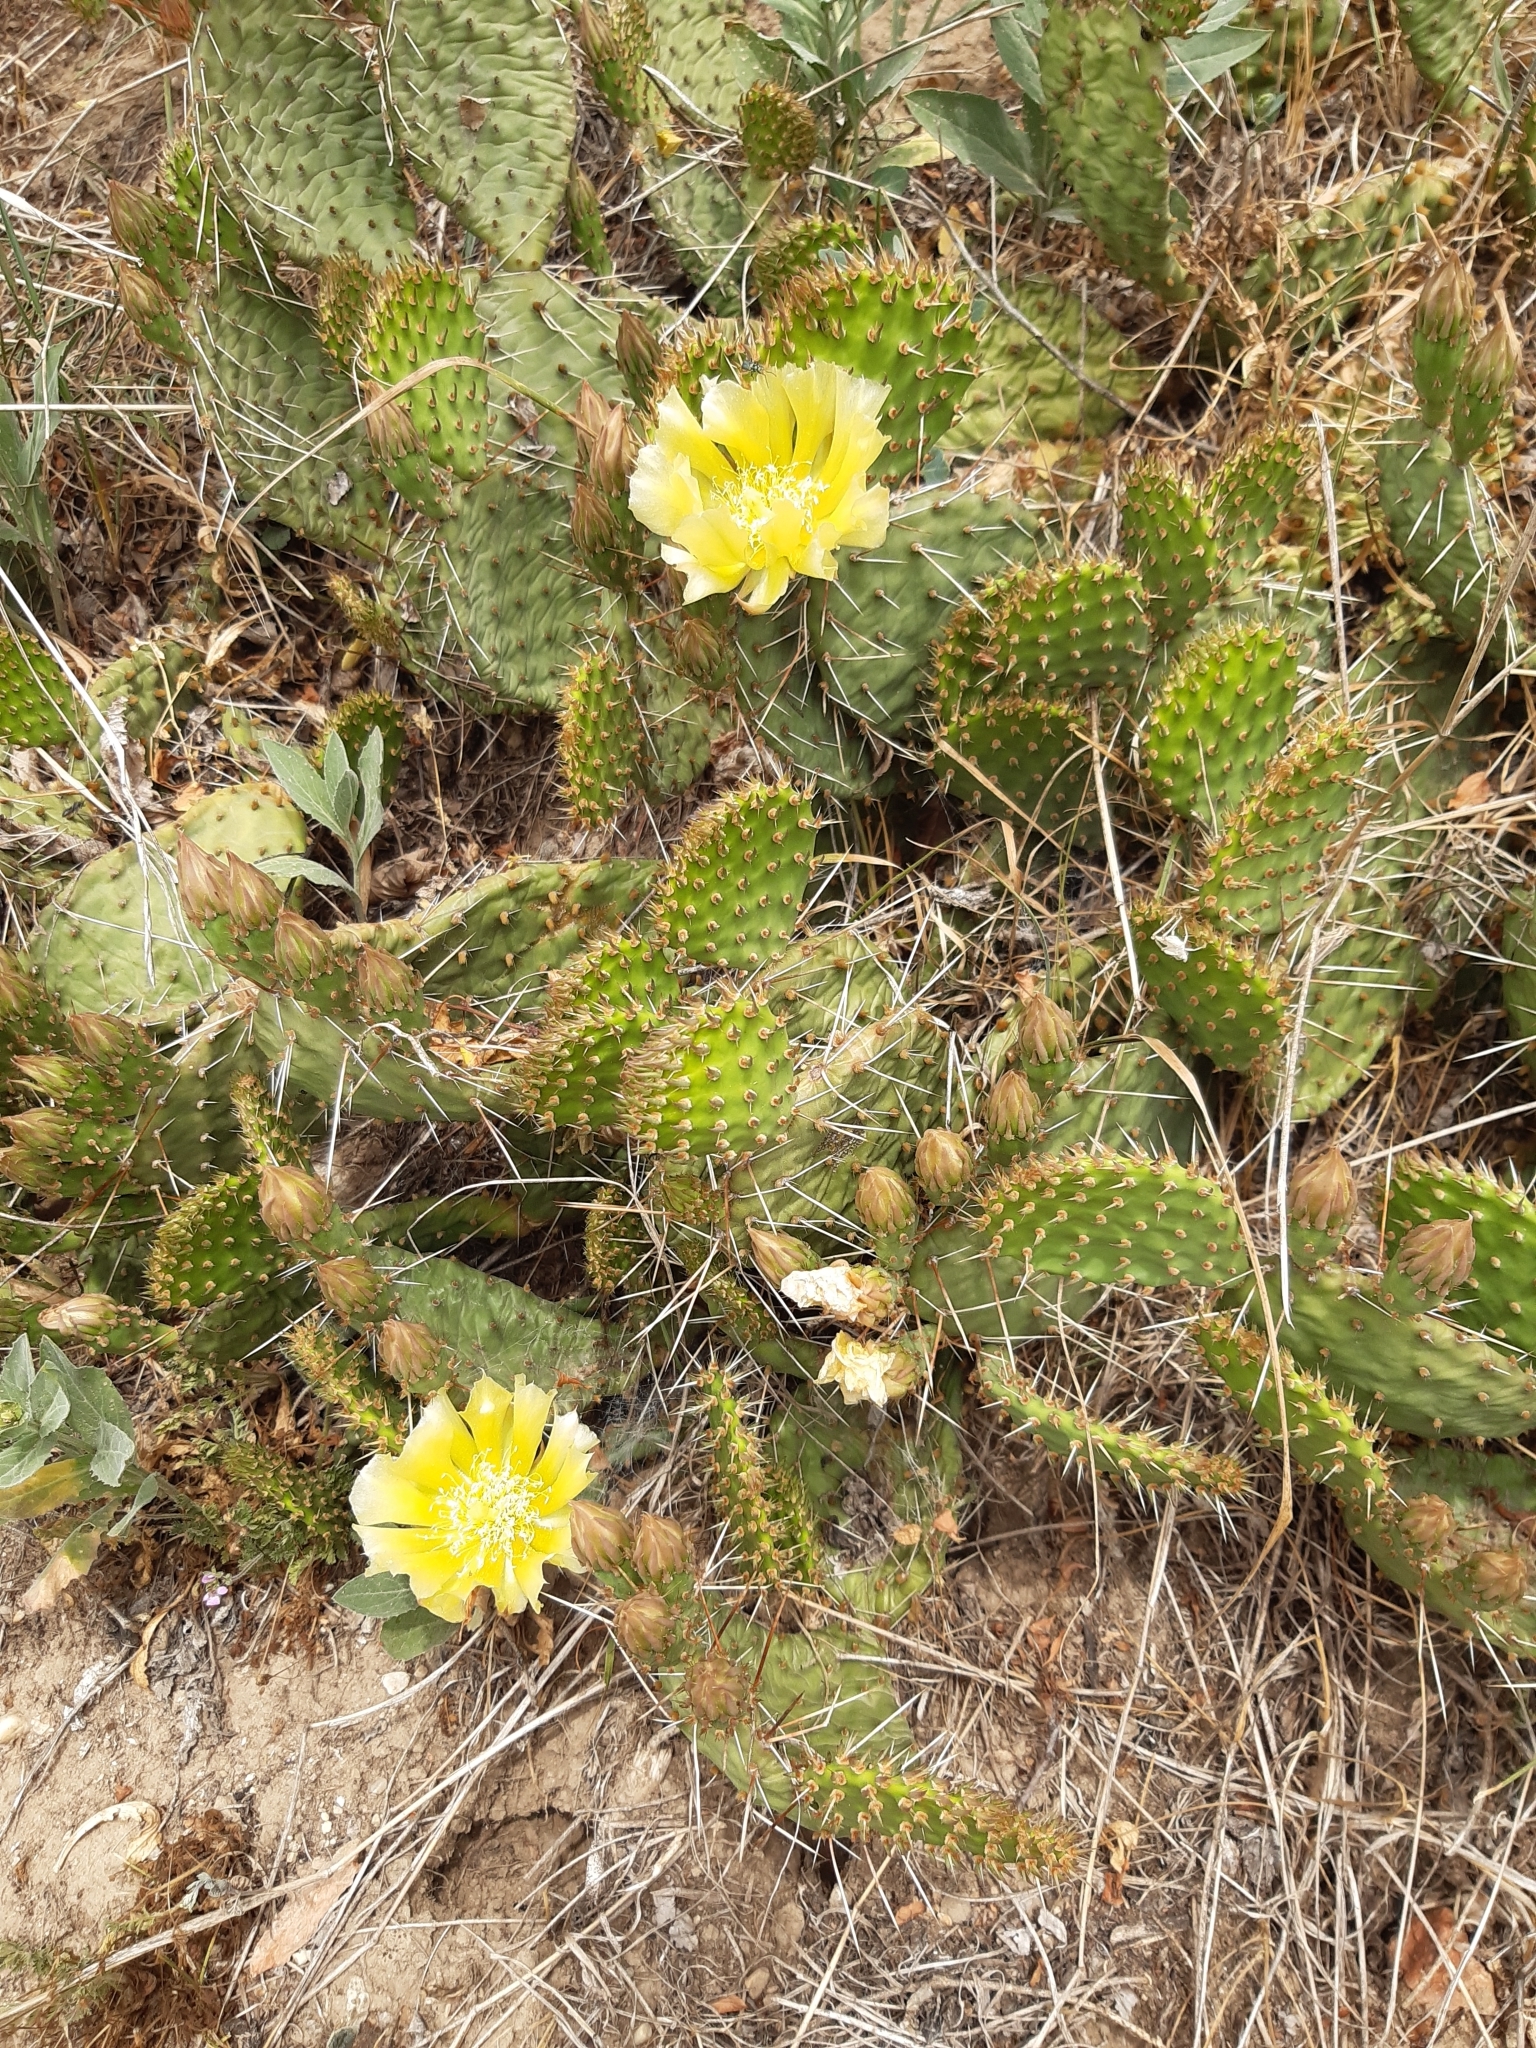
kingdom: Plantae
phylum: Tracheophyta
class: Magnoliopsida
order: Caryophyllales
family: Cactaceae
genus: Opuntia
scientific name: Opuntia cymochila
